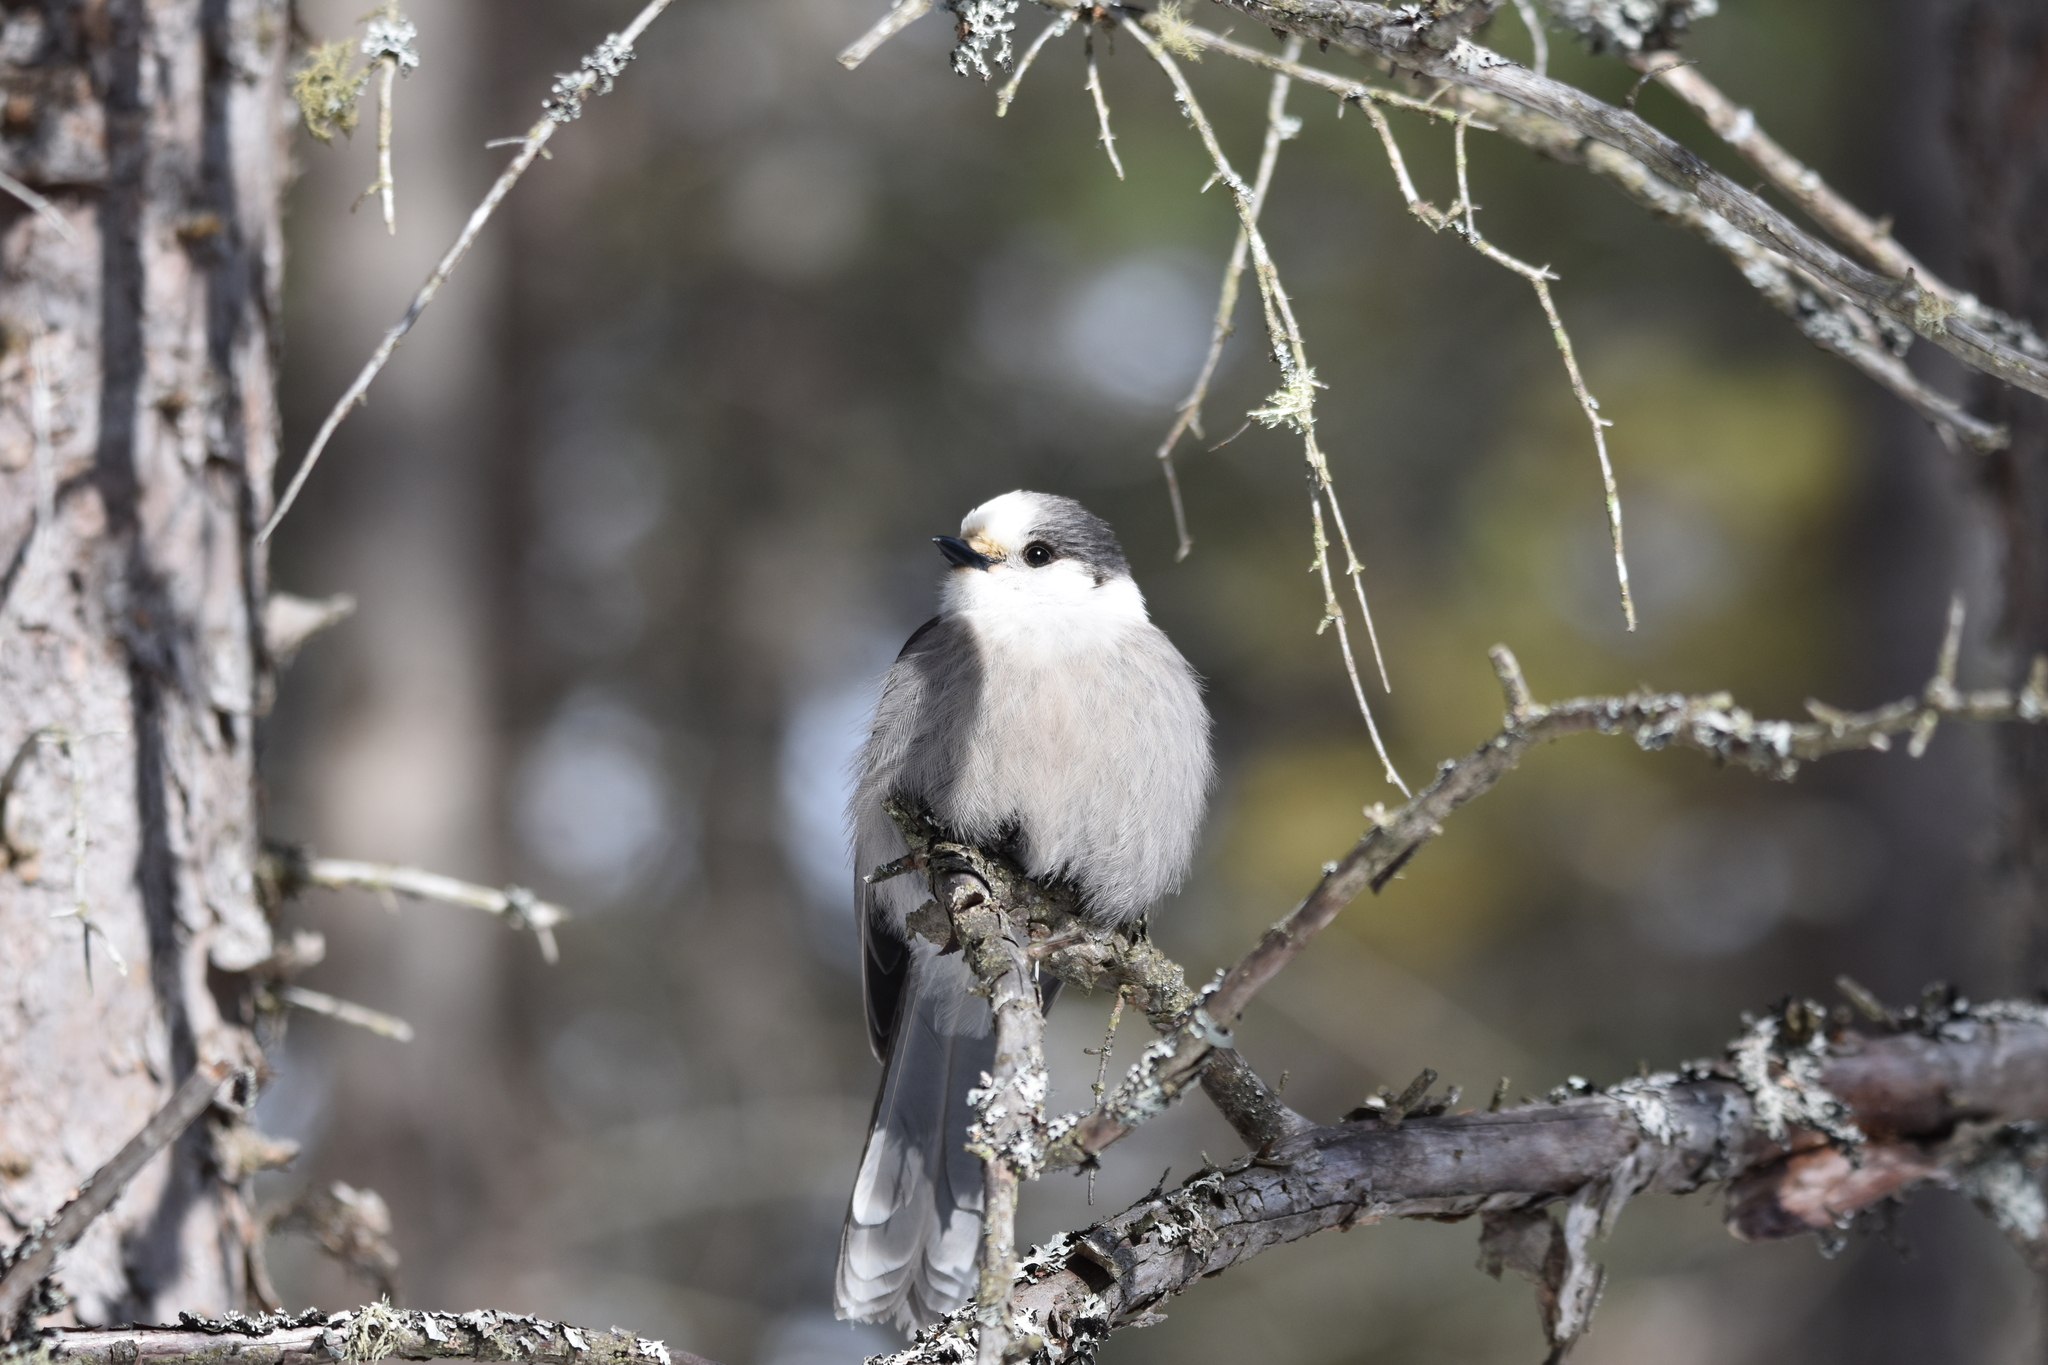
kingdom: Animalia
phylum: Chordata
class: Aves
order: Passeriformes
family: Corvidae
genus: Perisoreus
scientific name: Perisoreus canadensis
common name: Gray jay
